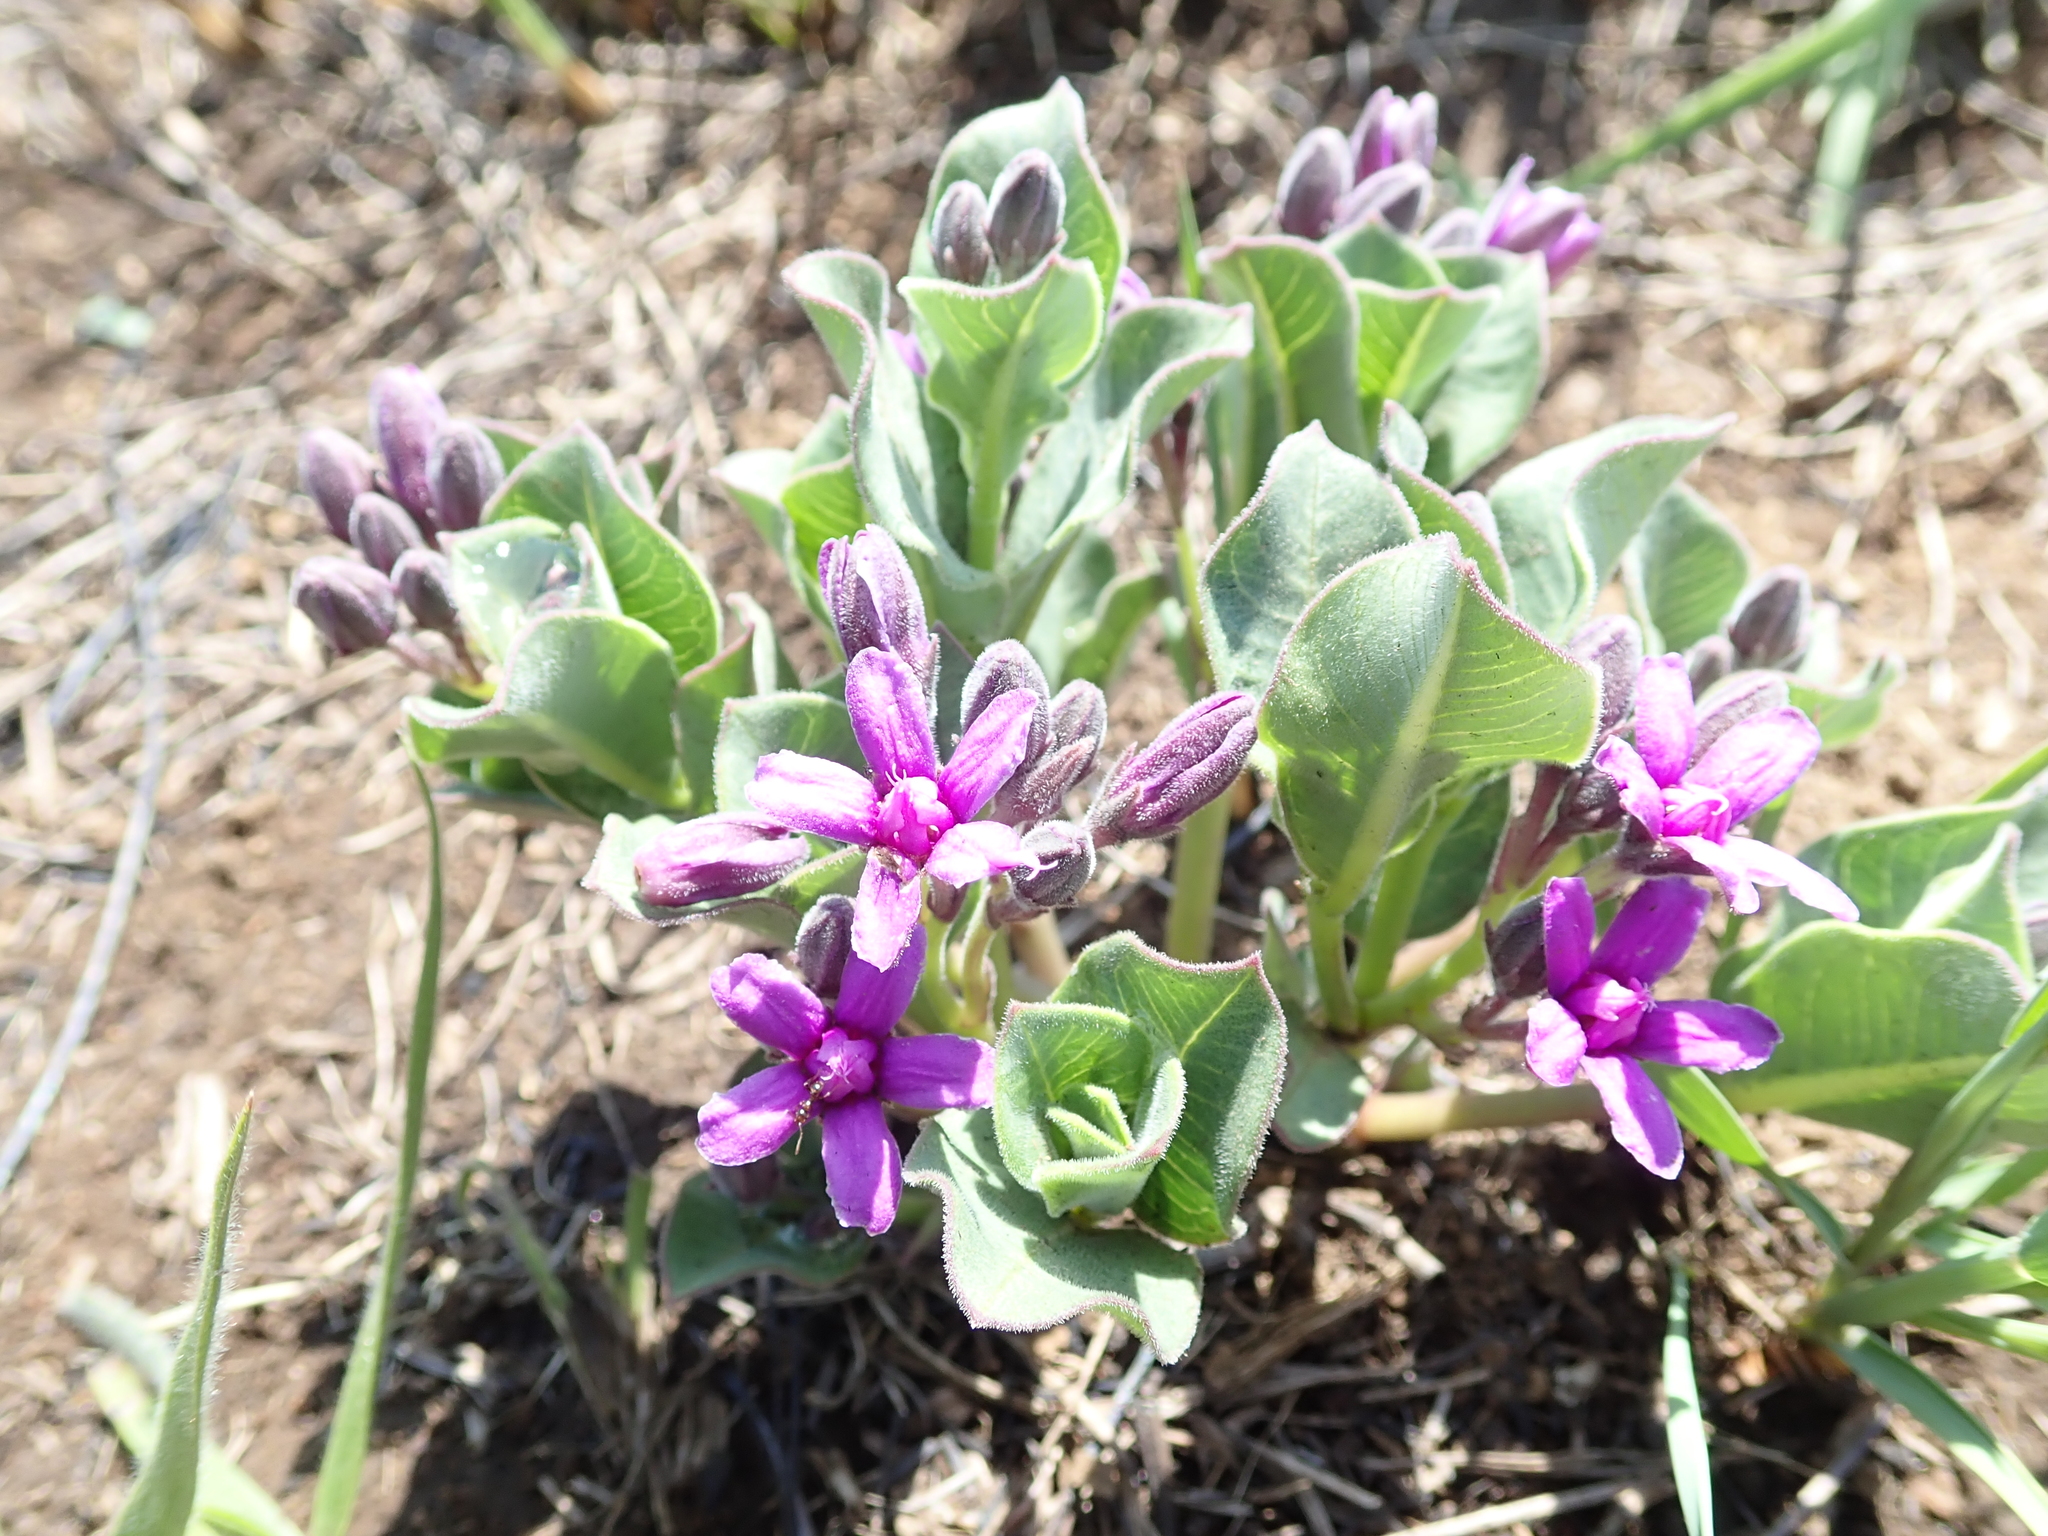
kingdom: Plantae
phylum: Tracheophyta
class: Magnoliopsida
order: Gentianales
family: Apocynaceae
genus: Raphionacme
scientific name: Raphionacme hirsuta
